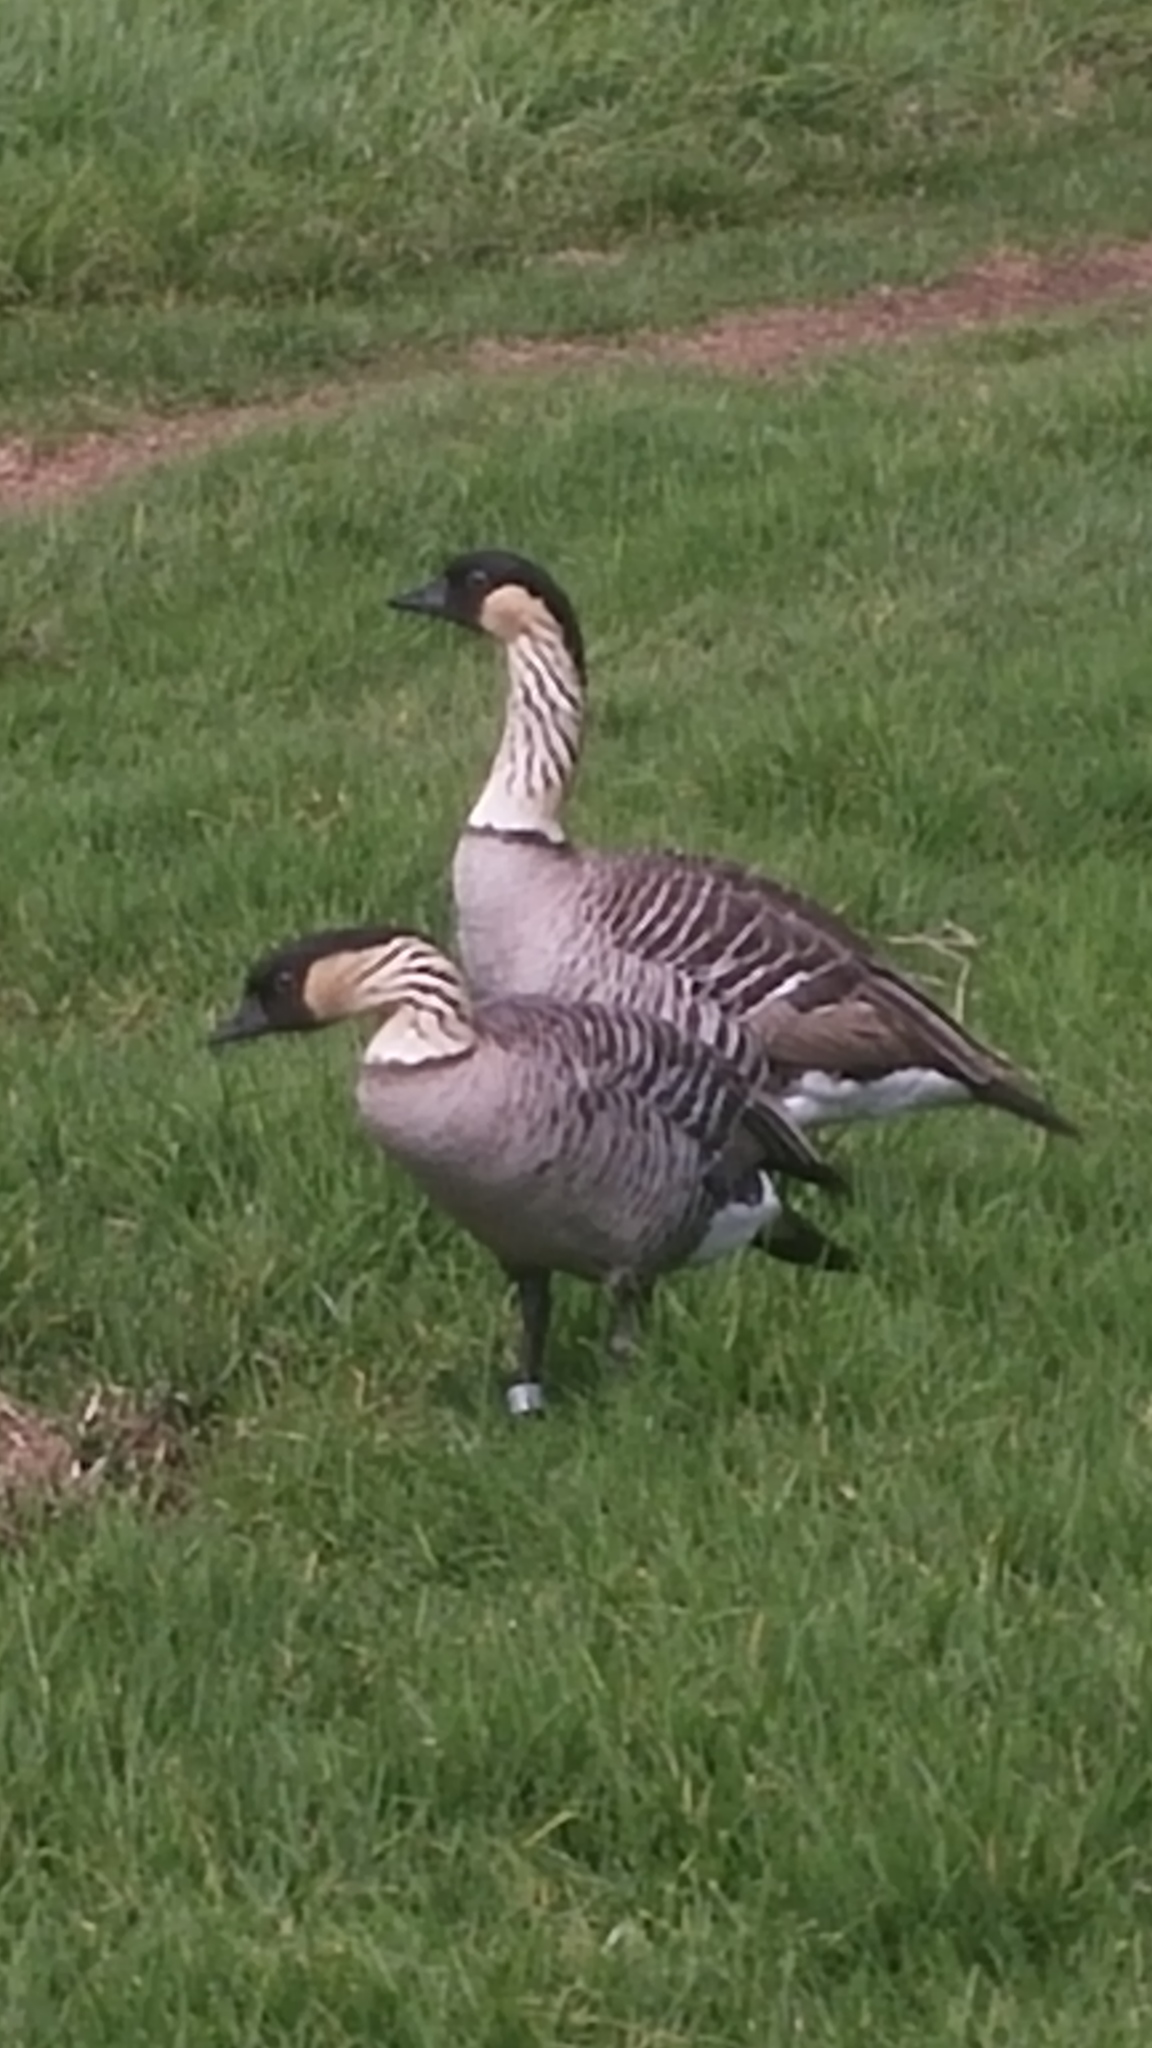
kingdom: Animalia
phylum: Chordata
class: Aves
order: Anseriformes
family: Anatidae
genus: Branta
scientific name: Branta sandvicensis
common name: Nene
